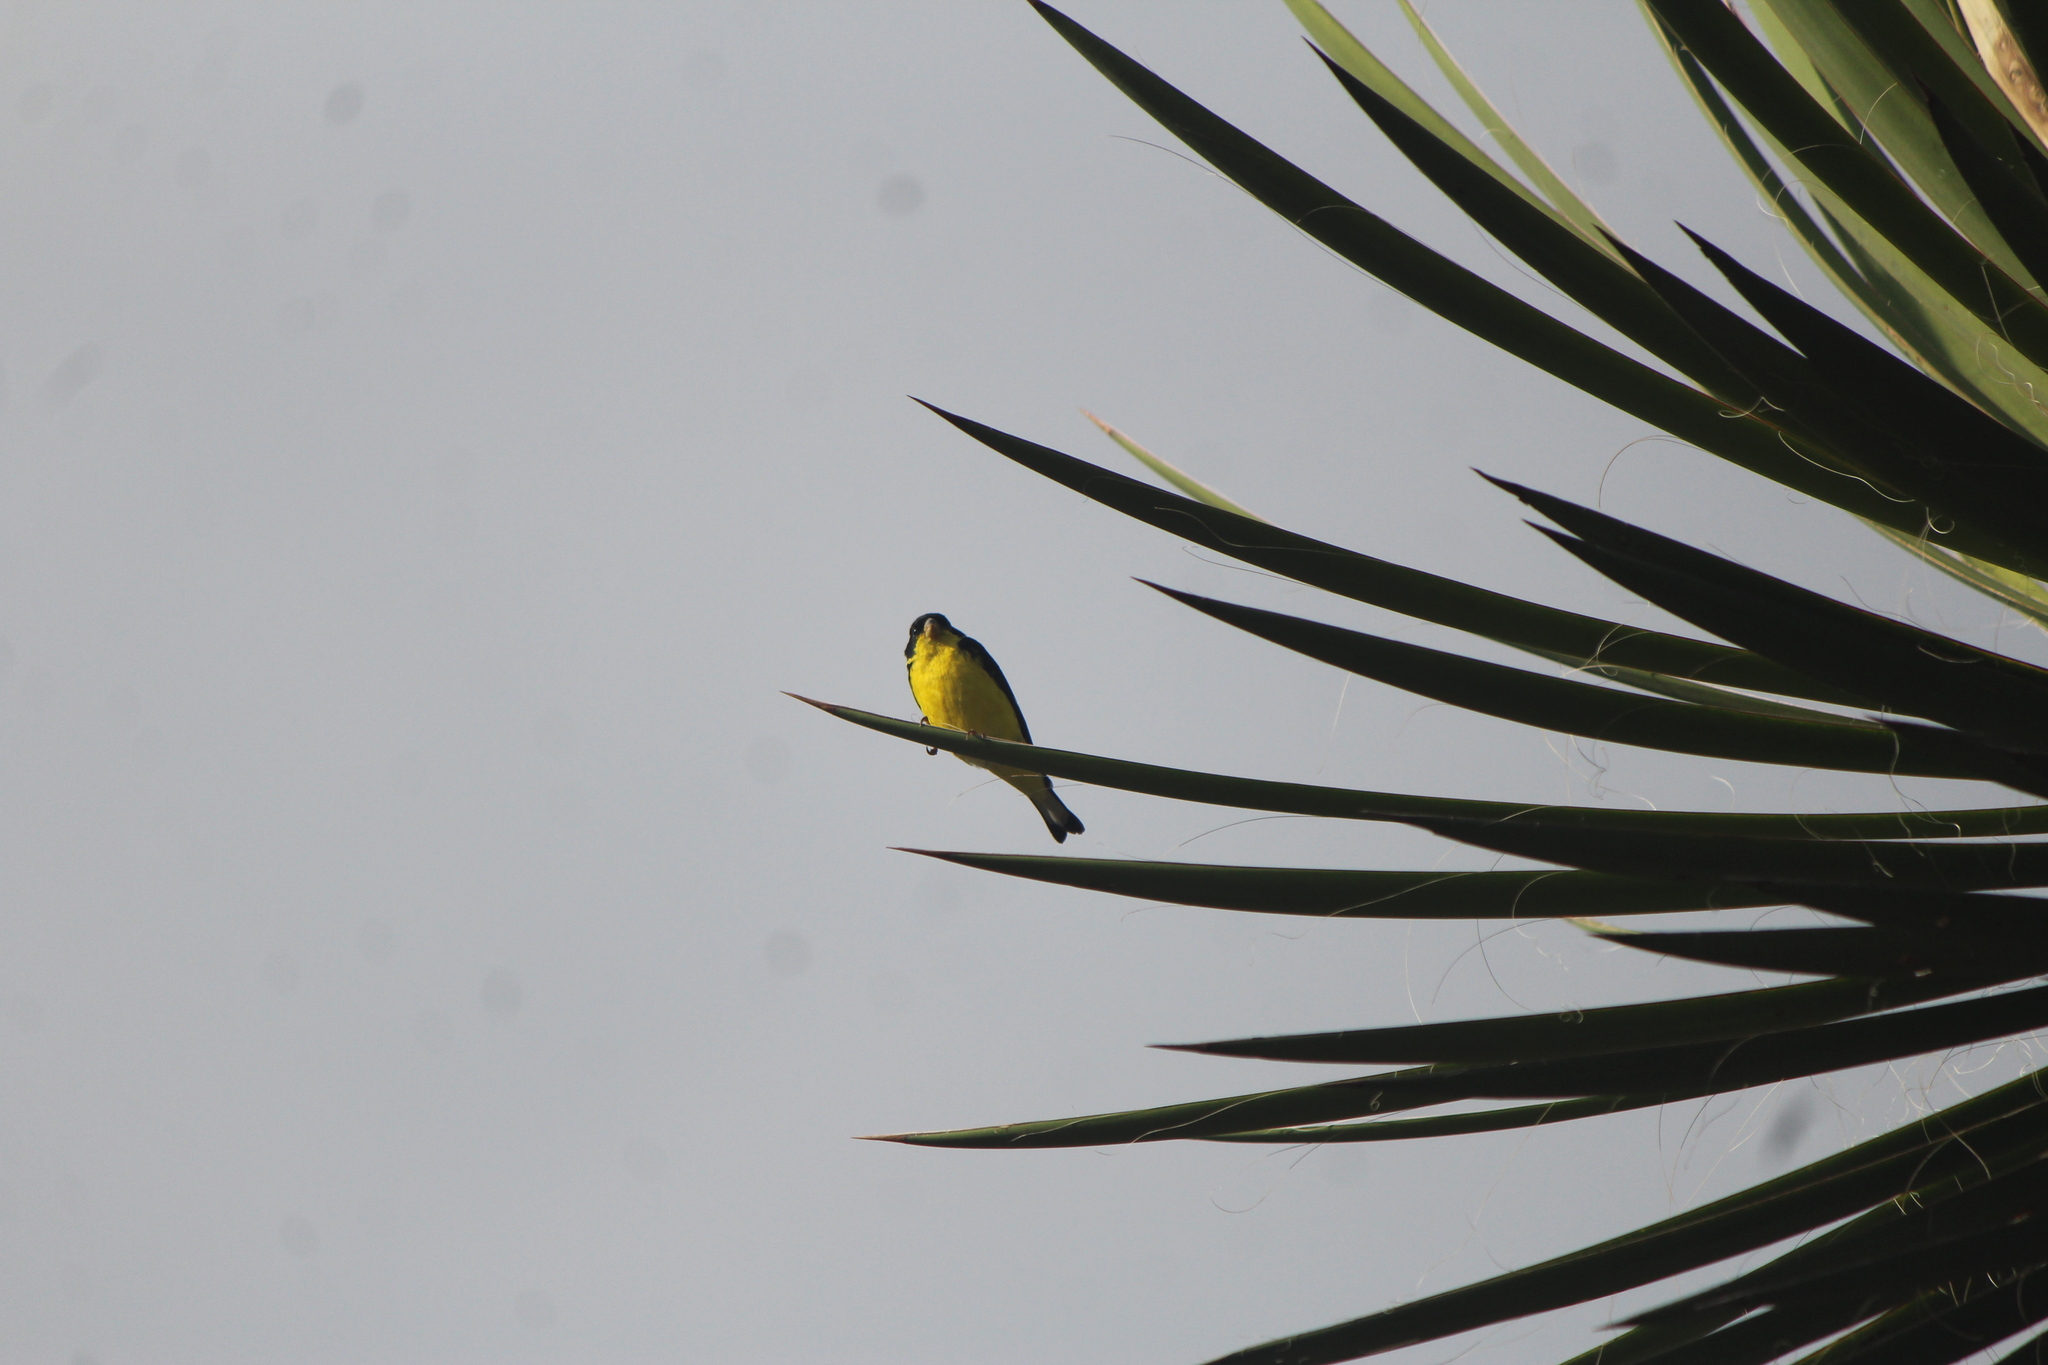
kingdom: Animalia
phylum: Chordata
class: Aves
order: Passeriformes
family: Fringillidae
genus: Spinus
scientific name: Spinus psaltria
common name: Lesser goldfinch
